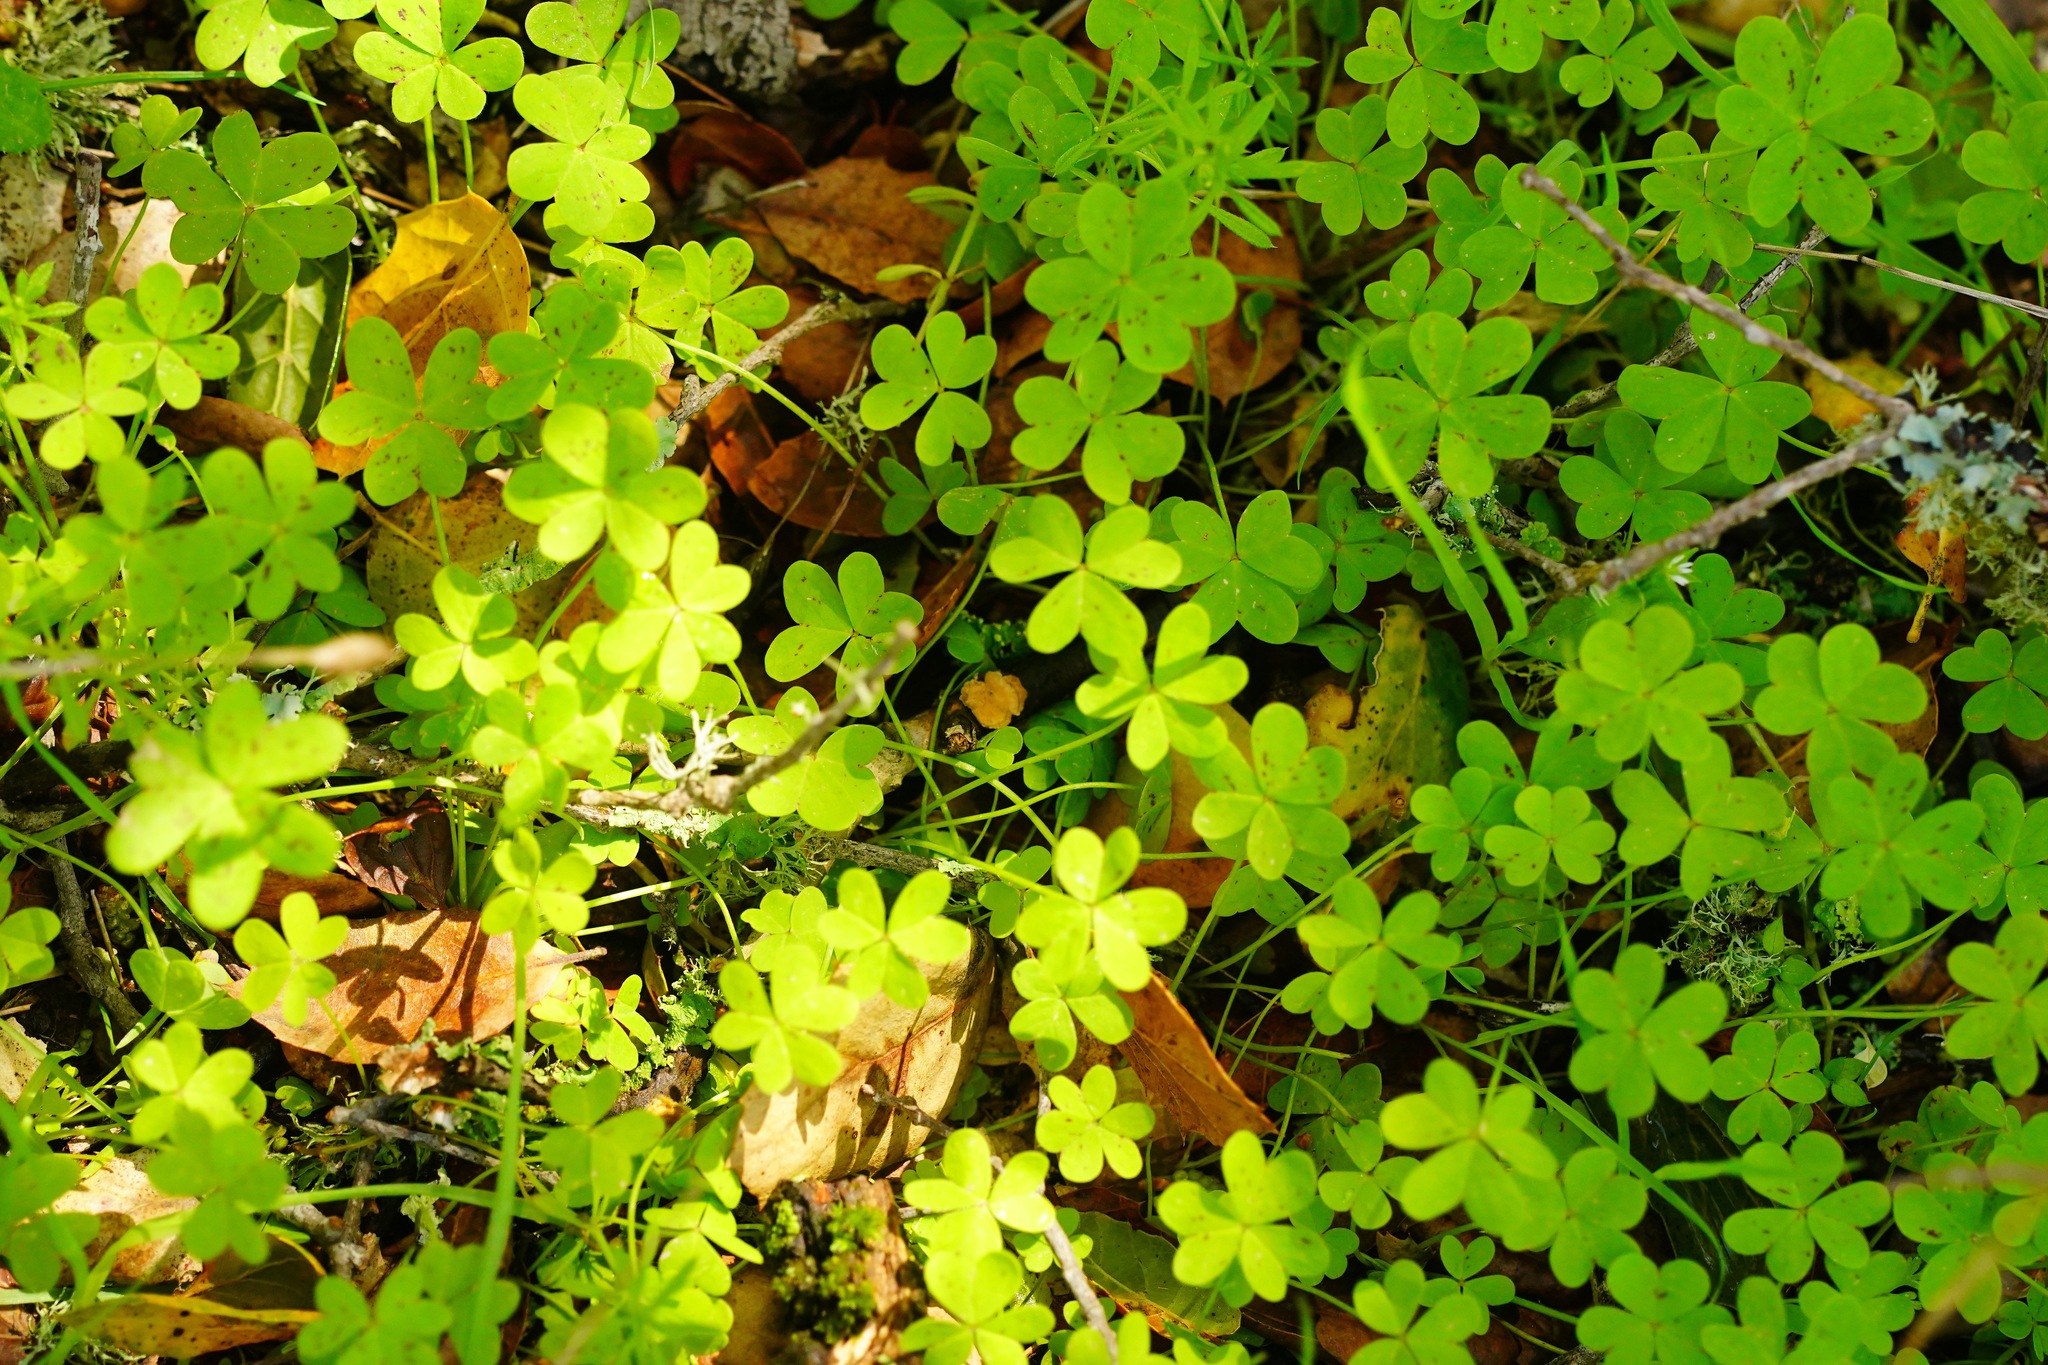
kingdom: Plantae
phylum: Tracheophyta
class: Magnoliopsida
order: Oxalidales
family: Oxalidaceae
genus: Oxalis
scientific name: Oxalis pes-caprae
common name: Bermuda-buttercup
